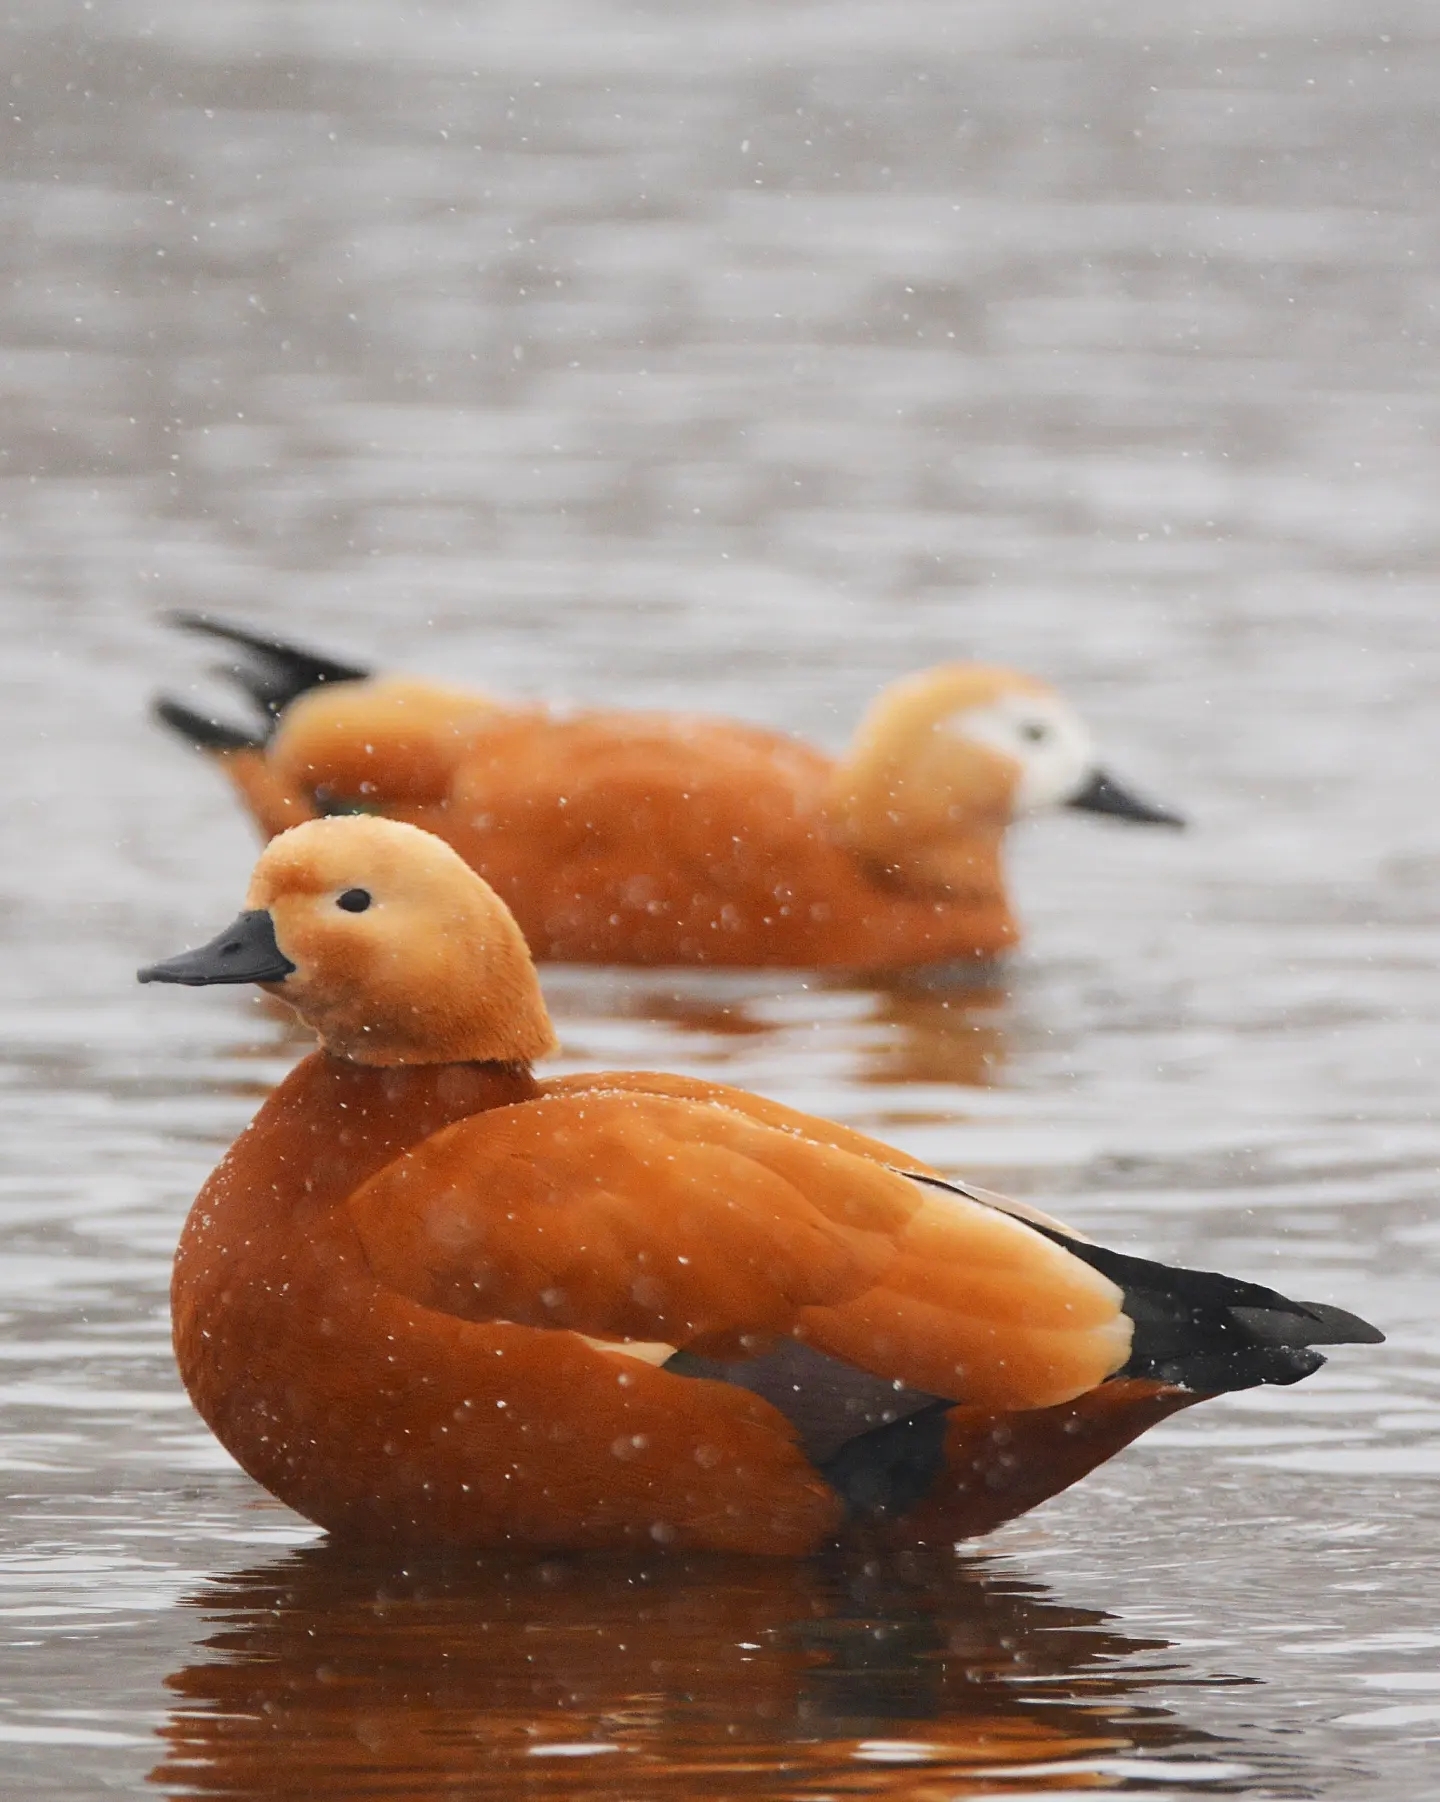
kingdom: Animalia
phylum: Chordata
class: Aves
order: Anseriformes
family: Anatidae
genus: Tadorna
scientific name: Tadorna ferruginea
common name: Ruddy shelduck
